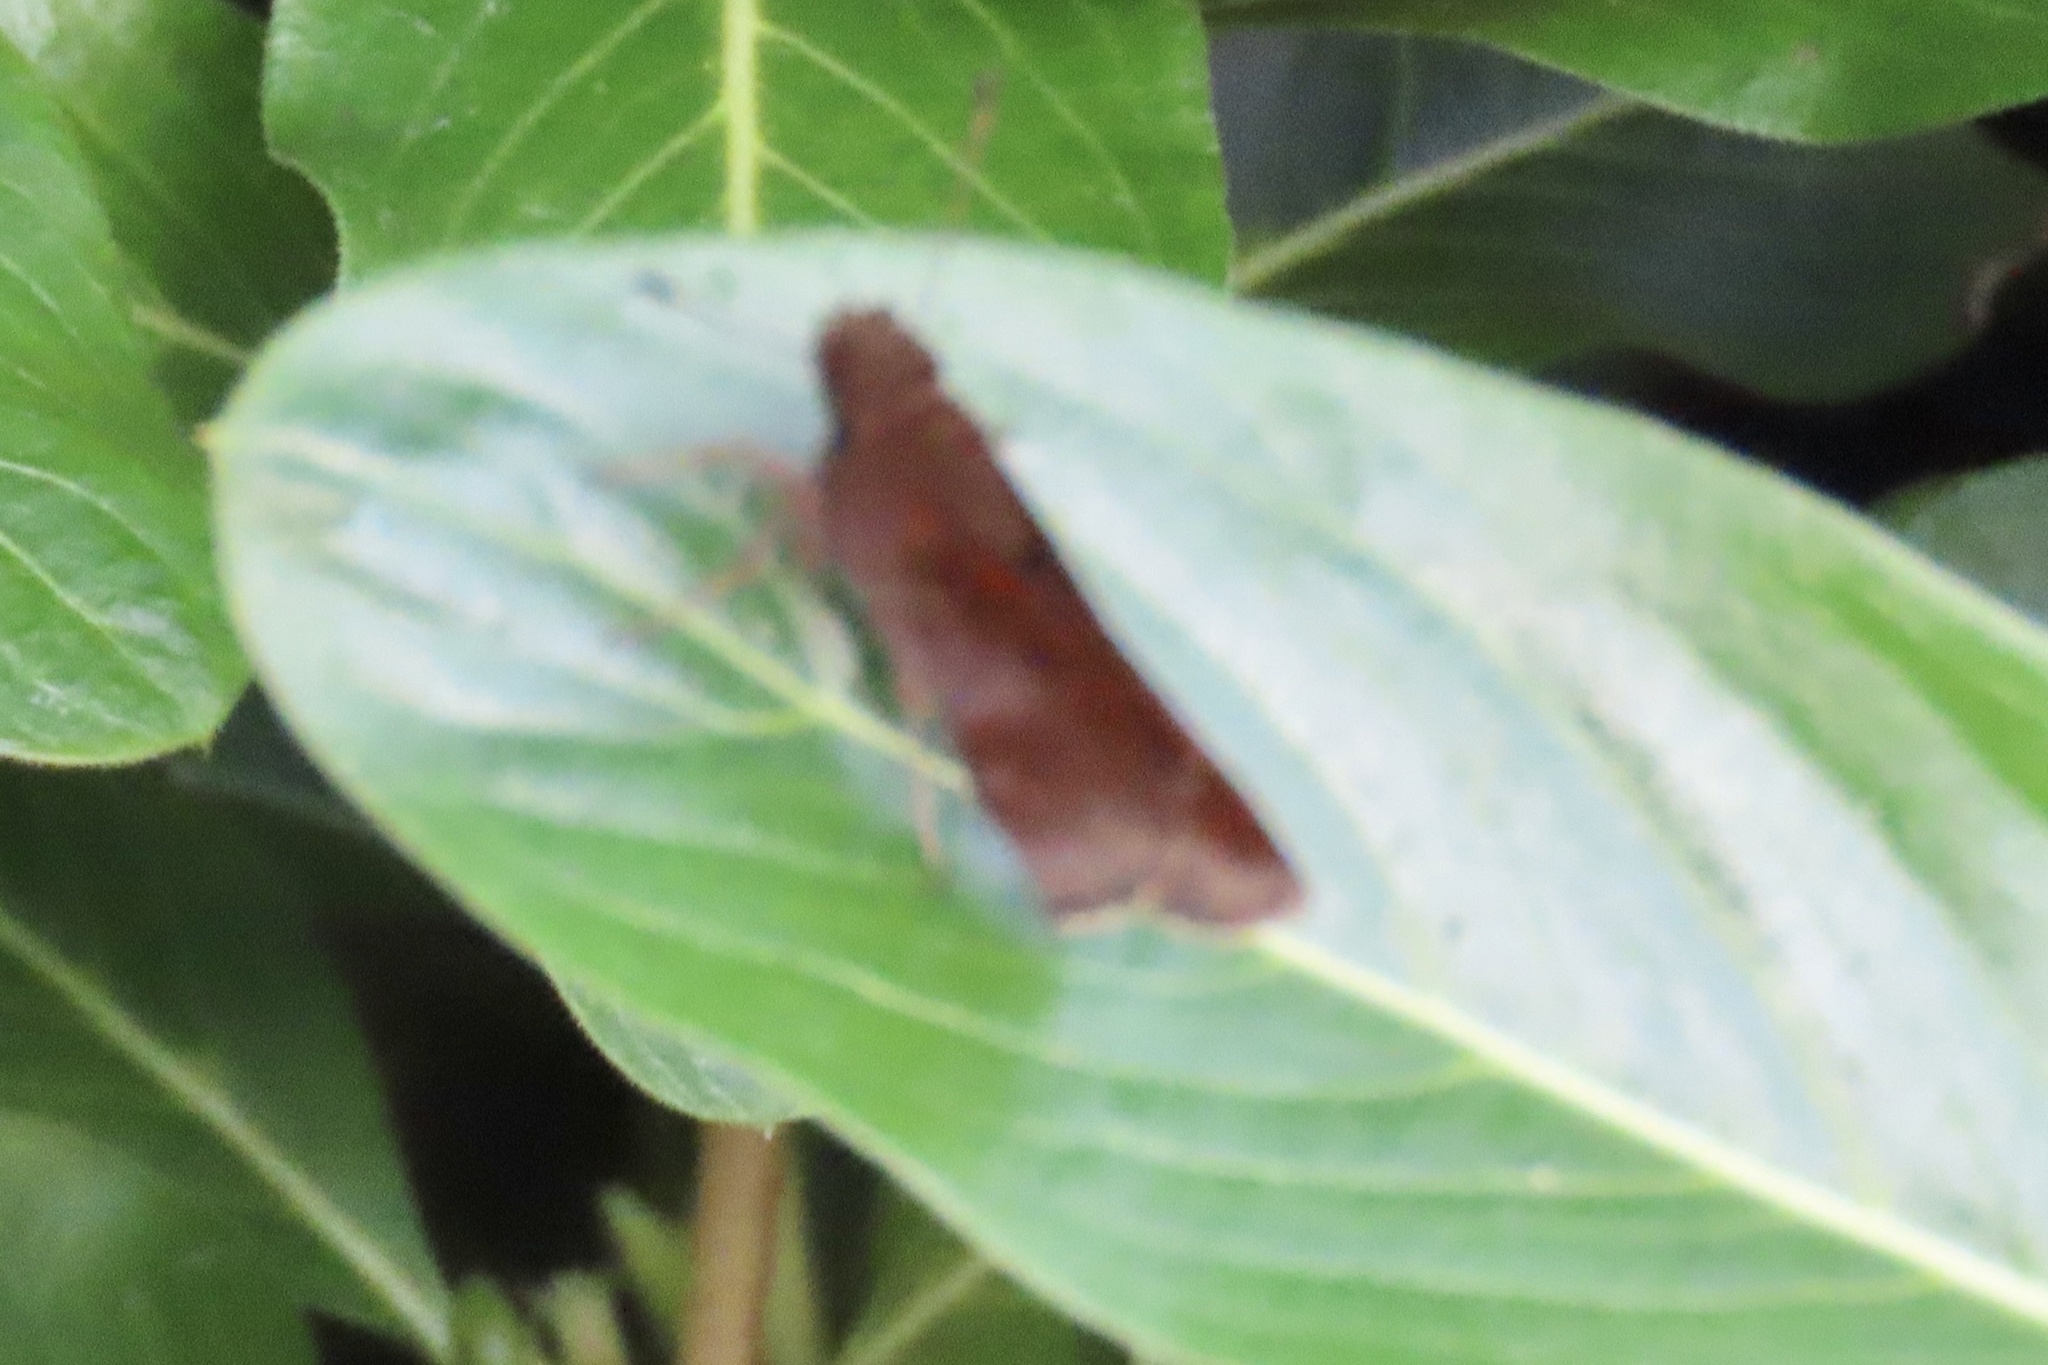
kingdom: Animalia
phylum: Arthropoda
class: Insecta
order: Lepidoptera
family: Hesperiidae
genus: Lerema
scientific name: Lerema accius
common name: Clouded skipper
